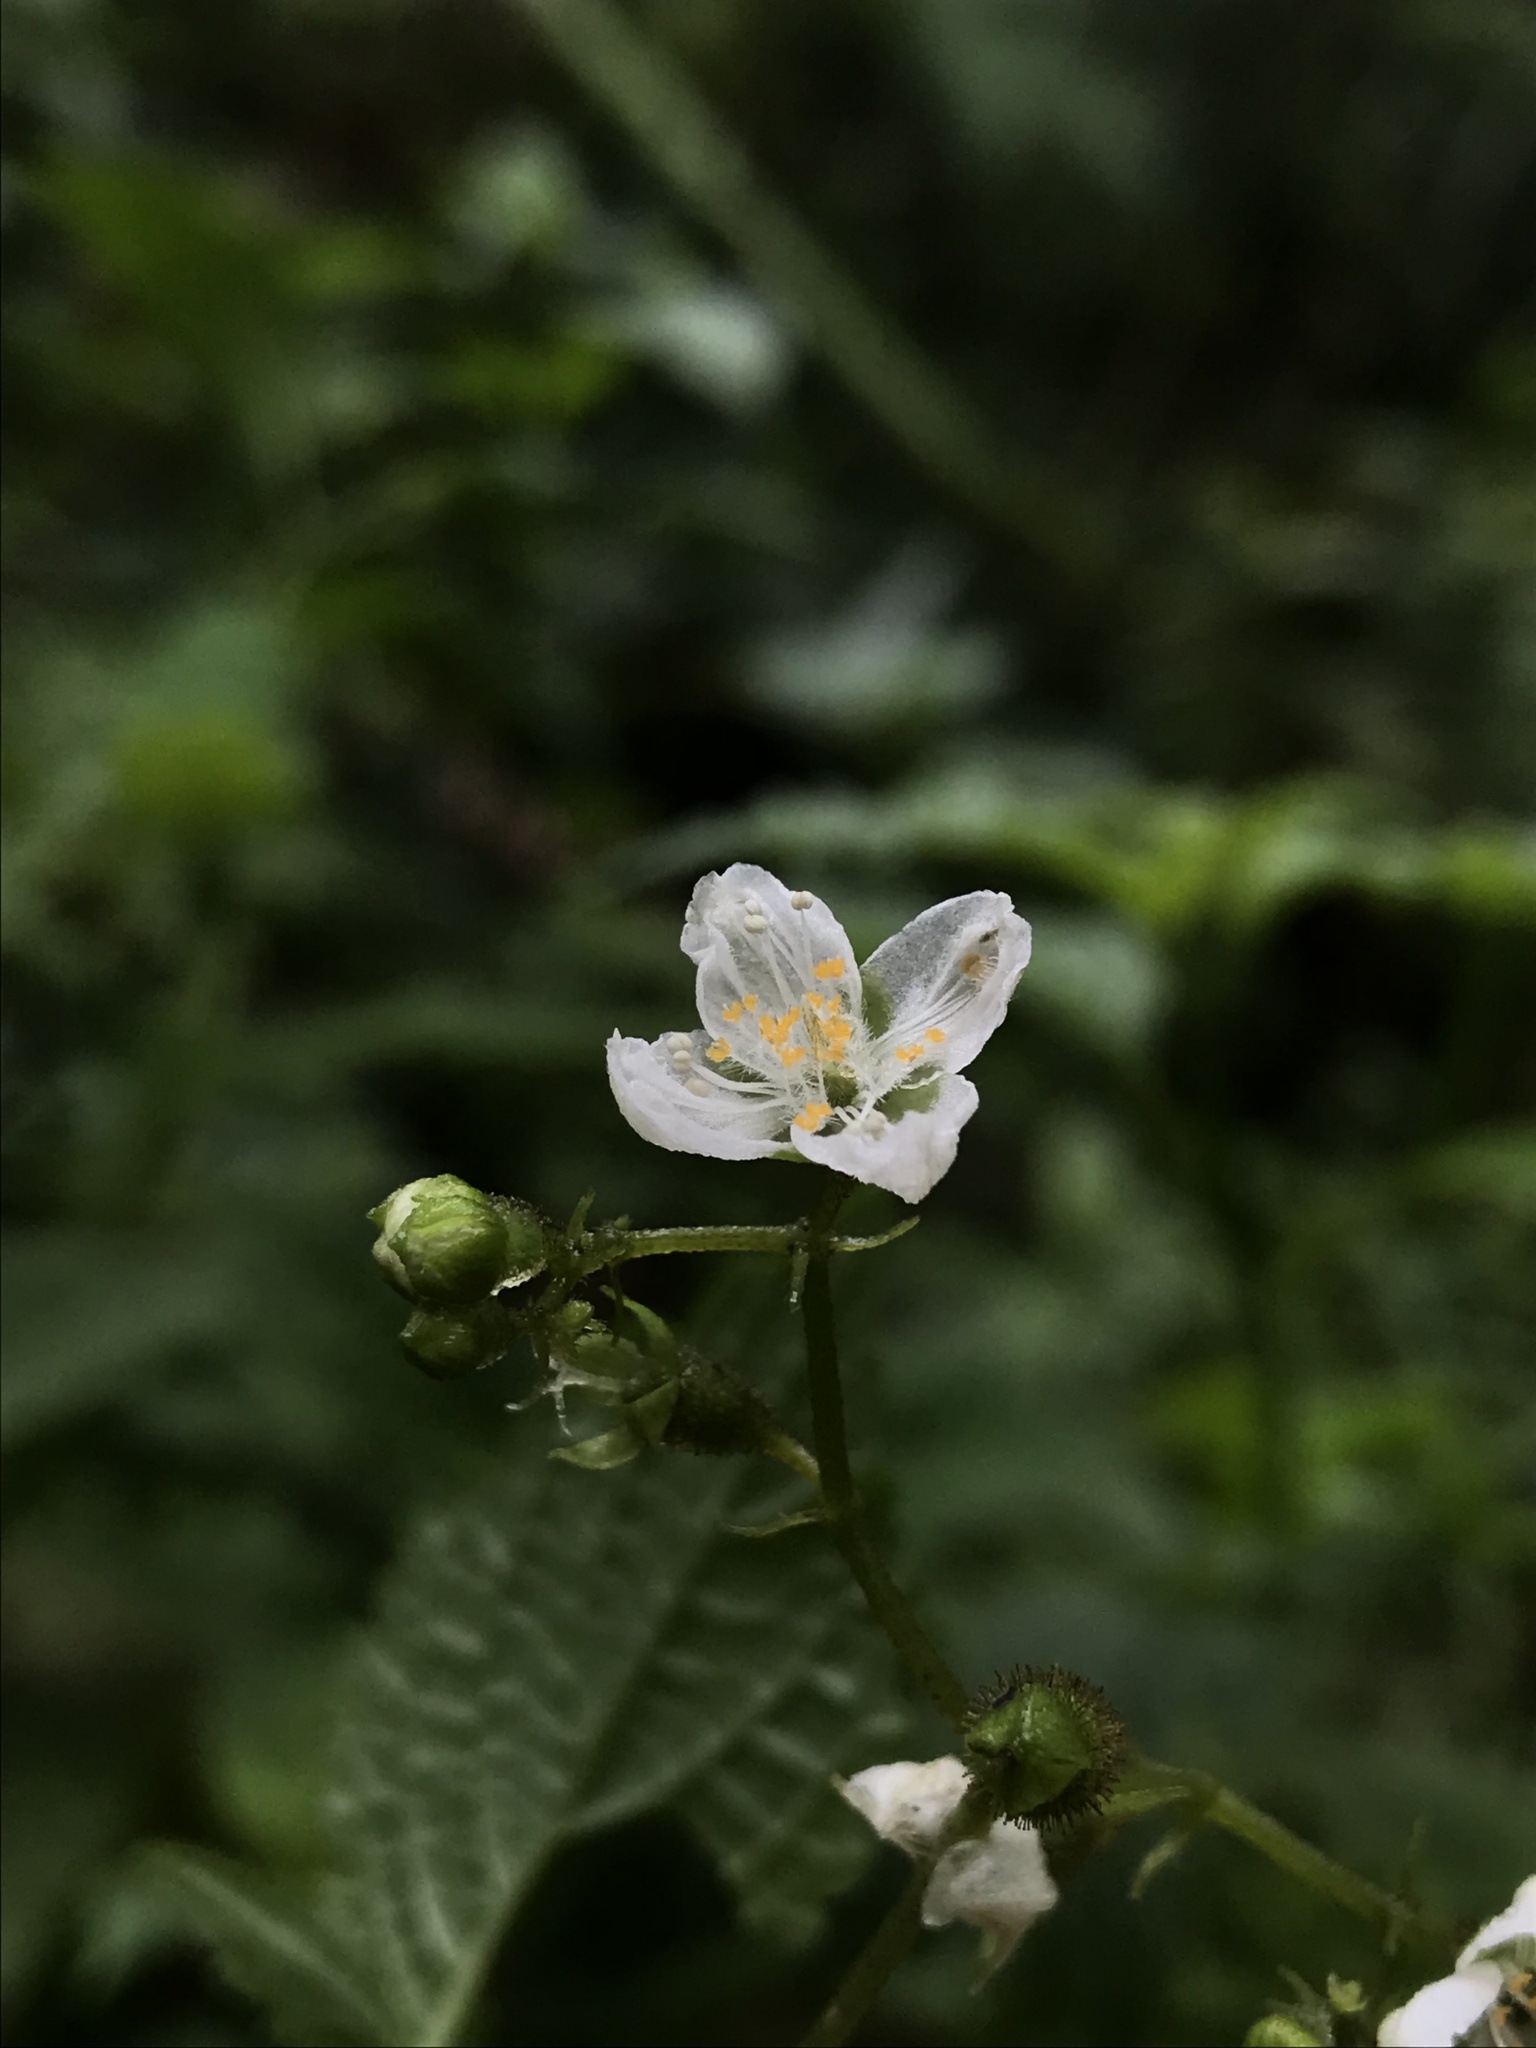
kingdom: Plantae
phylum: Tracheophyta
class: Magnoliopsida
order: Cornales
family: Loasaceae
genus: Klaprothia
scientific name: Klaprothia mentzelioides
